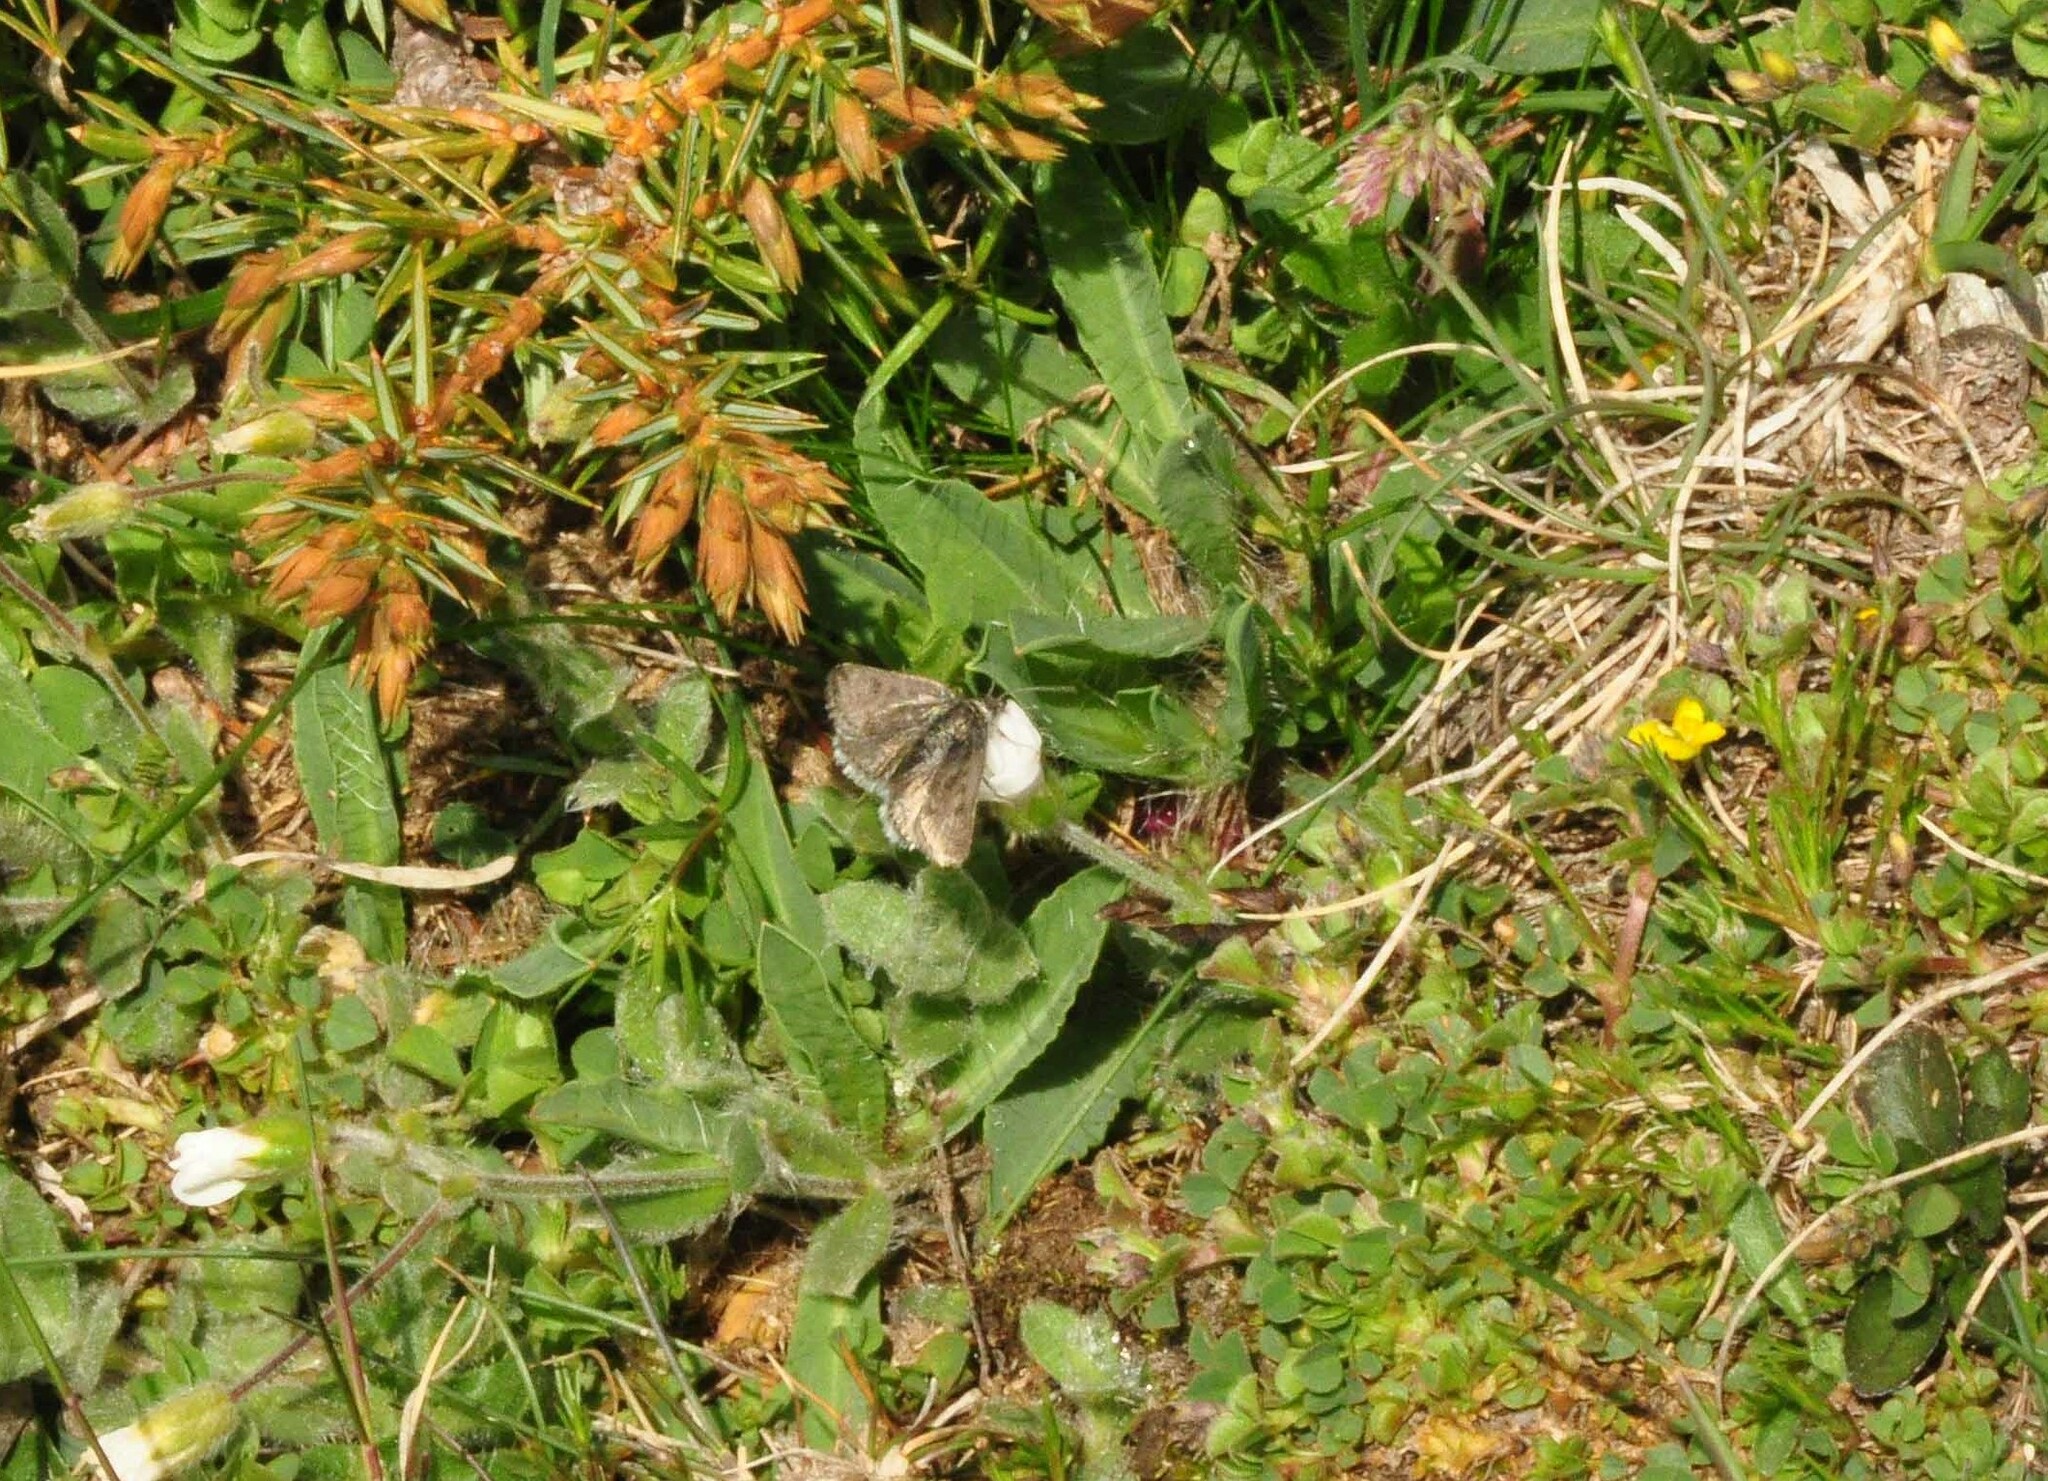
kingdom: Animalia
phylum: Arthropoda
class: Insecta
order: Lepidoptera
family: Crambidae
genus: Metaxmeste
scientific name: Metaxmeste phrygialis
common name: Black mountain pearl
